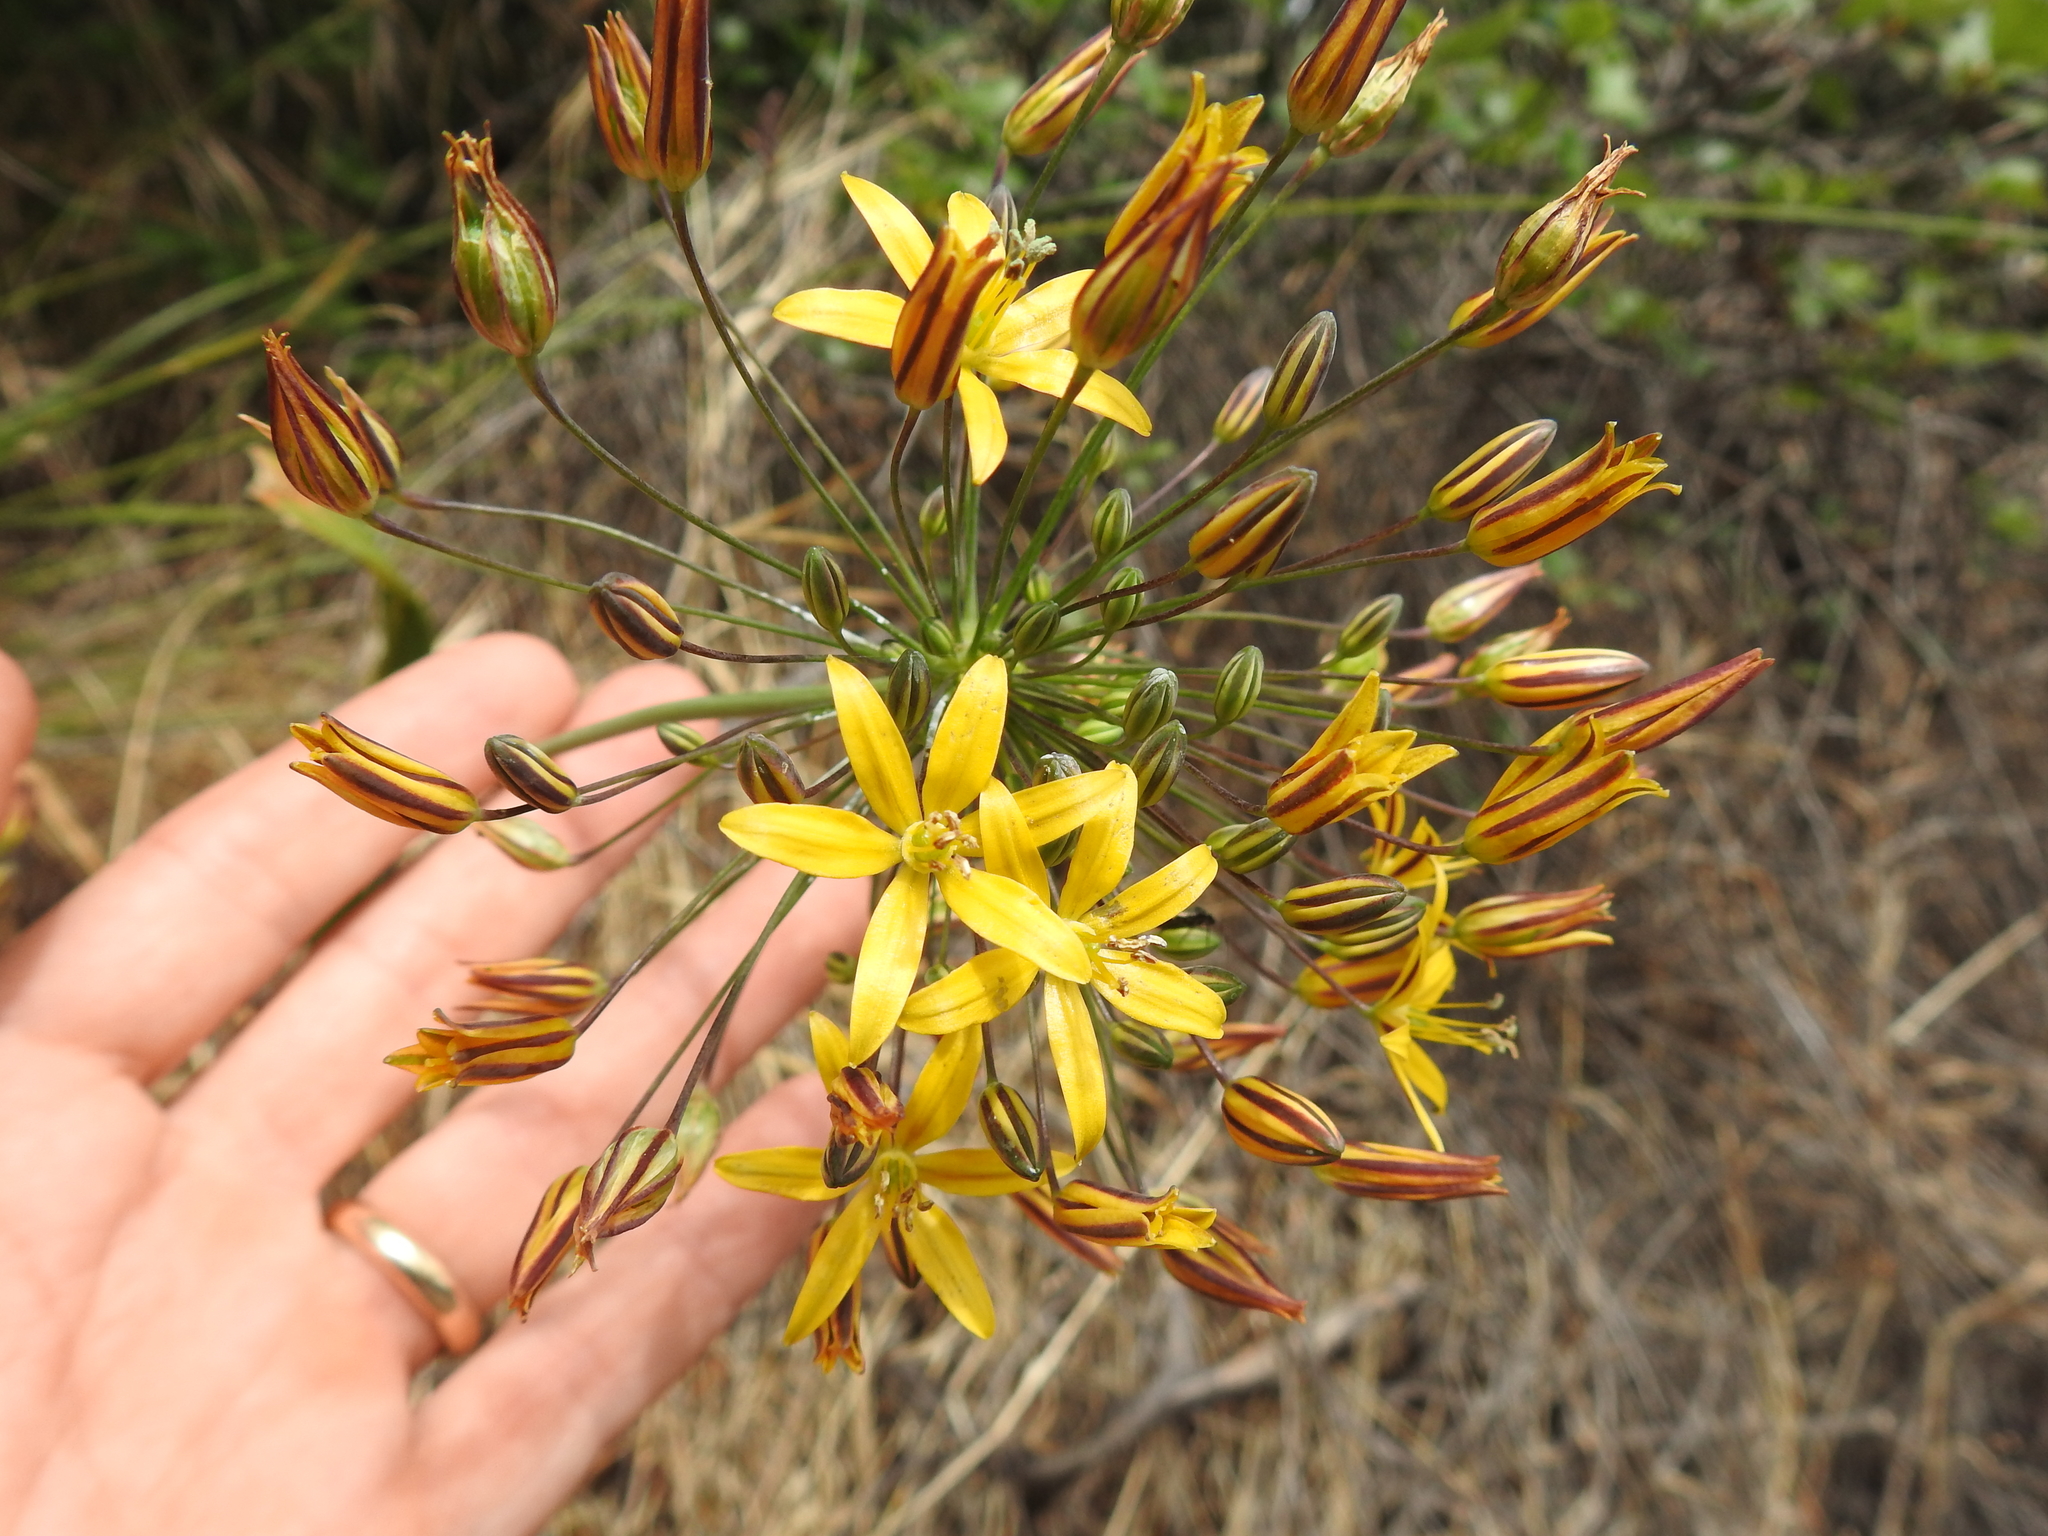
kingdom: Plantae
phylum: Tracheophyta
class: Liliopsida
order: Asparagales
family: Asparagaceae
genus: Bloomeria
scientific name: Bloomeria crocea
